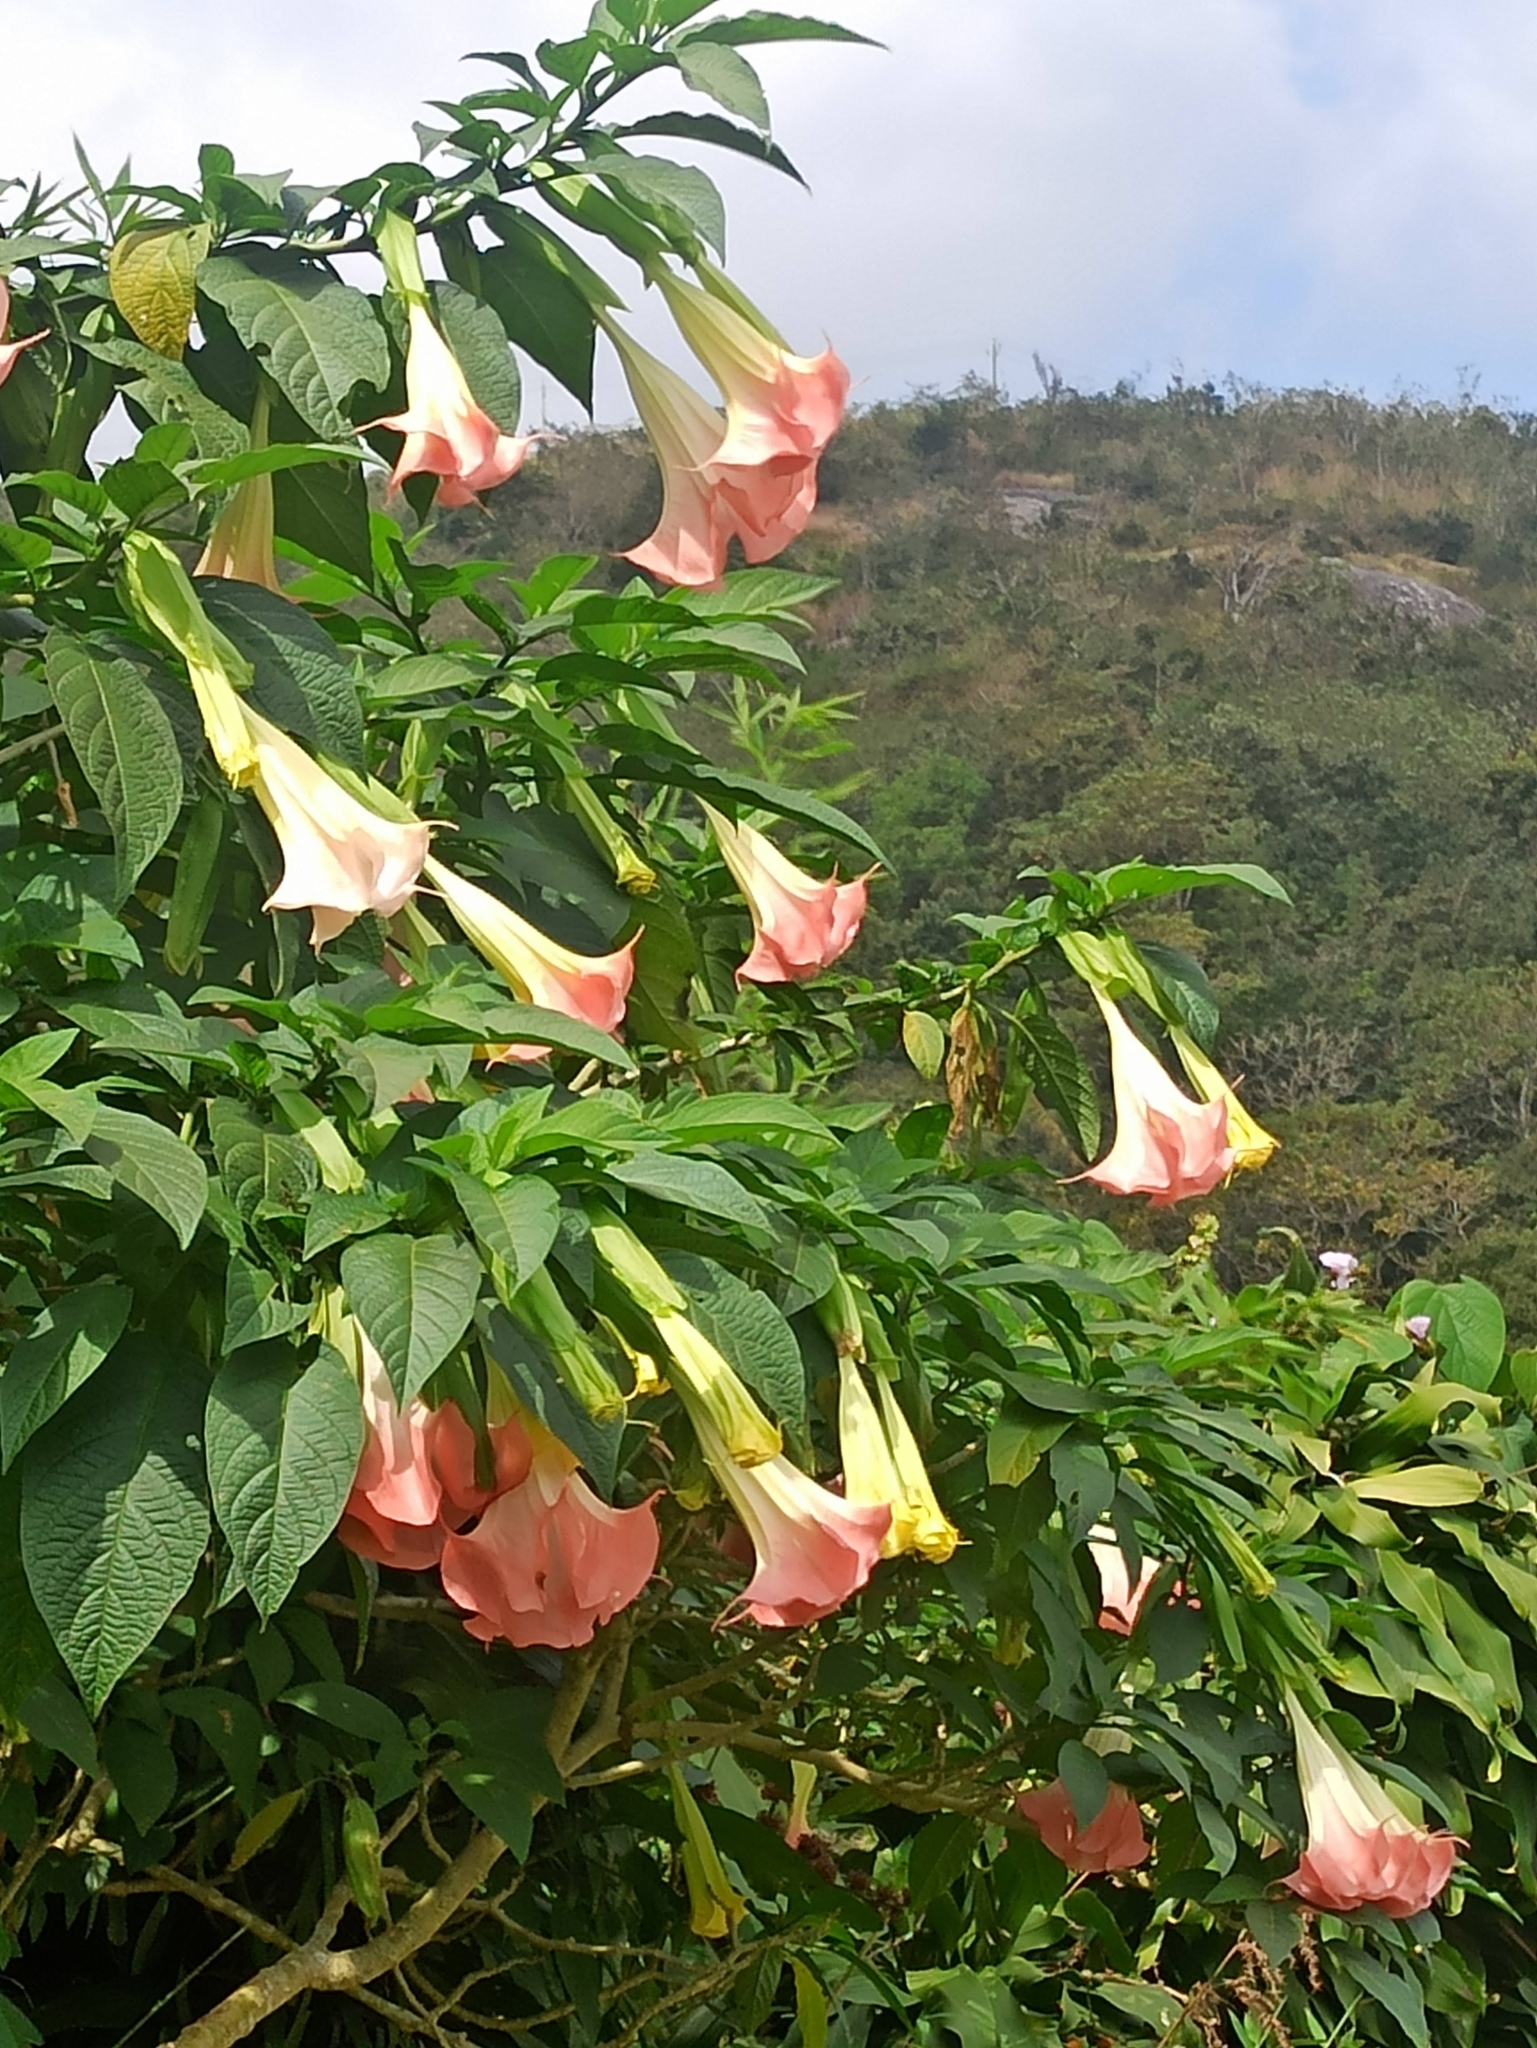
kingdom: Plantae
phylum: Tracheophyta
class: Magnoliopsida
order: Solanales
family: Solanaceae
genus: Brugmansia
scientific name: Brugmansia suaveolens
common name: Angel's tears
